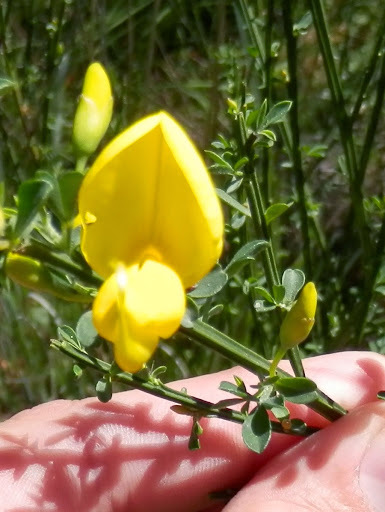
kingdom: Plantae
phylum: Tracheophyta
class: Magnoliopsida
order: Fabales
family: Fabaceae
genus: Cytisus
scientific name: Cytisus scoparius
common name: Scotch broom
